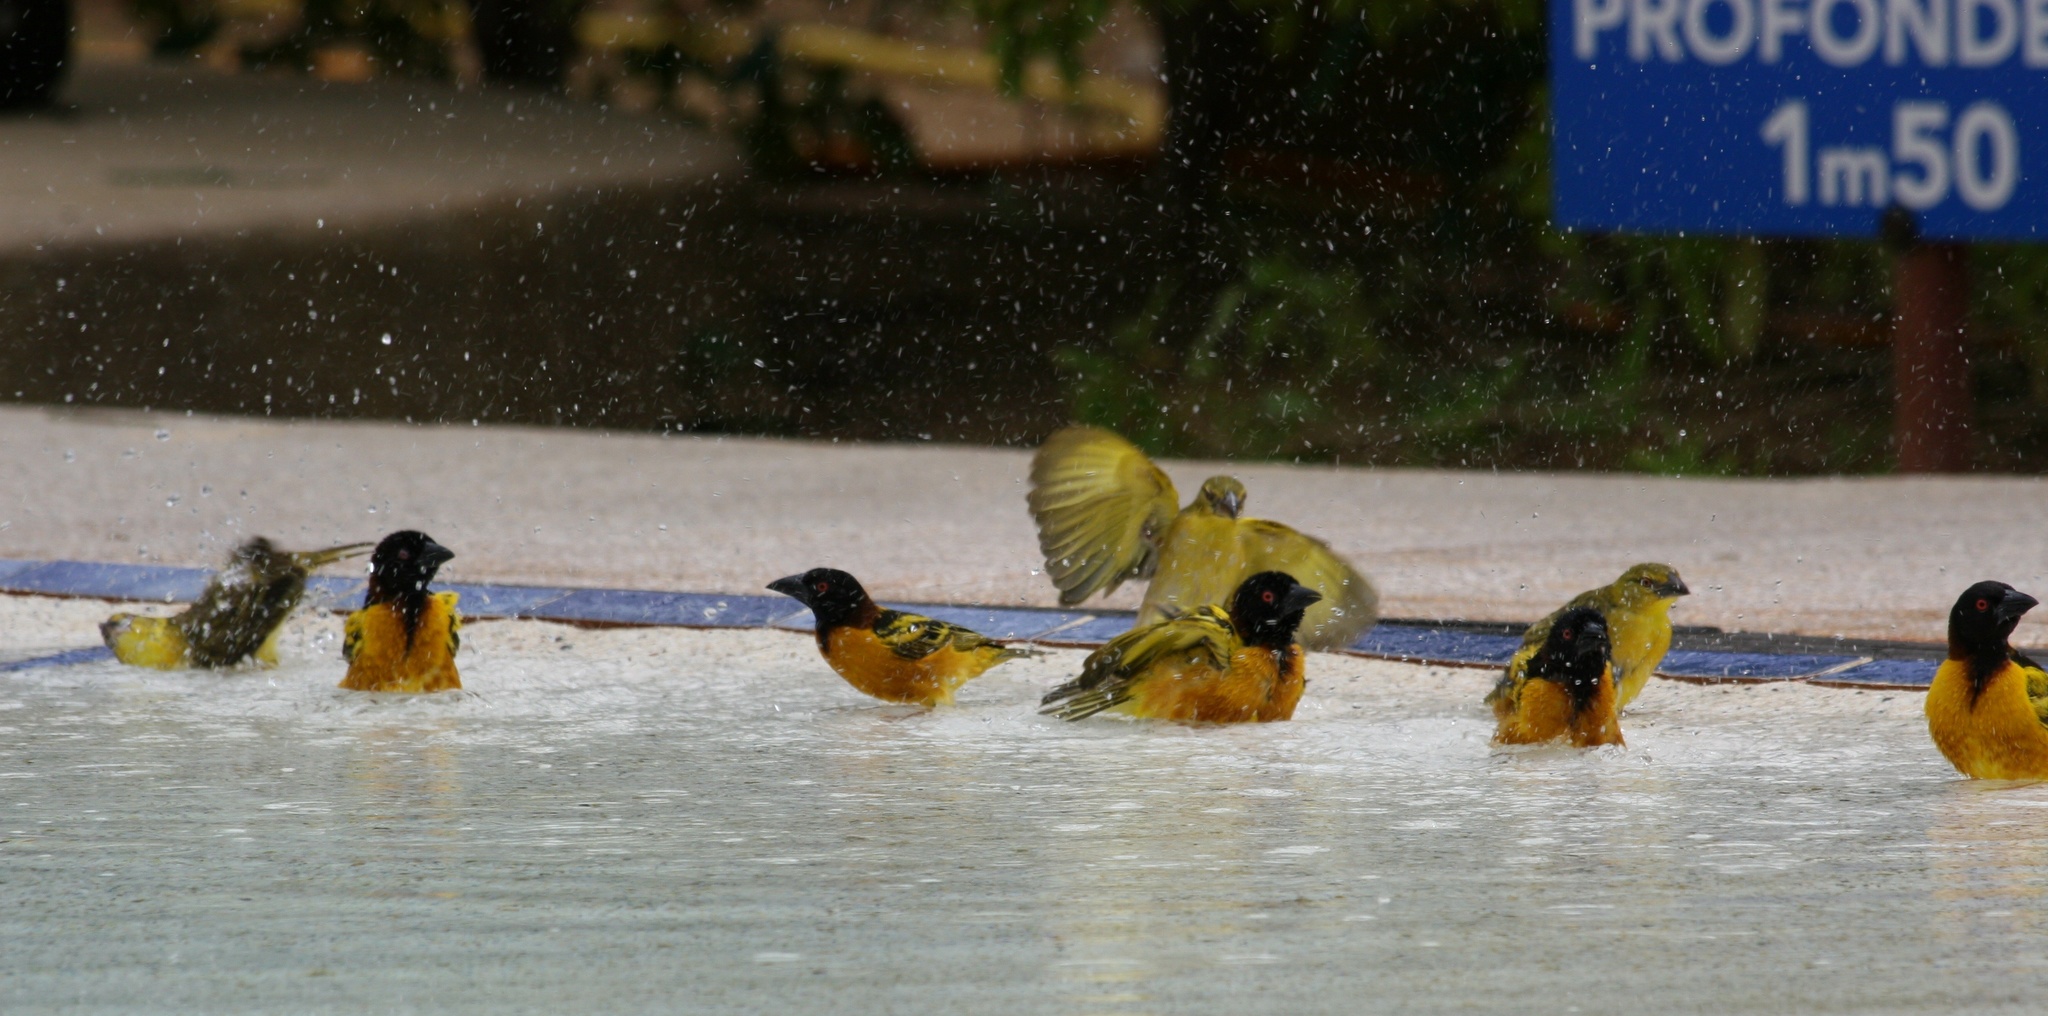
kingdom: Animalia
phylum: Chordata
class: Aves
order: Passeriformes
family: Ploceidae
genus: Ploceus
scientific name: Ploceus cucullatus
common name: Village weaver
